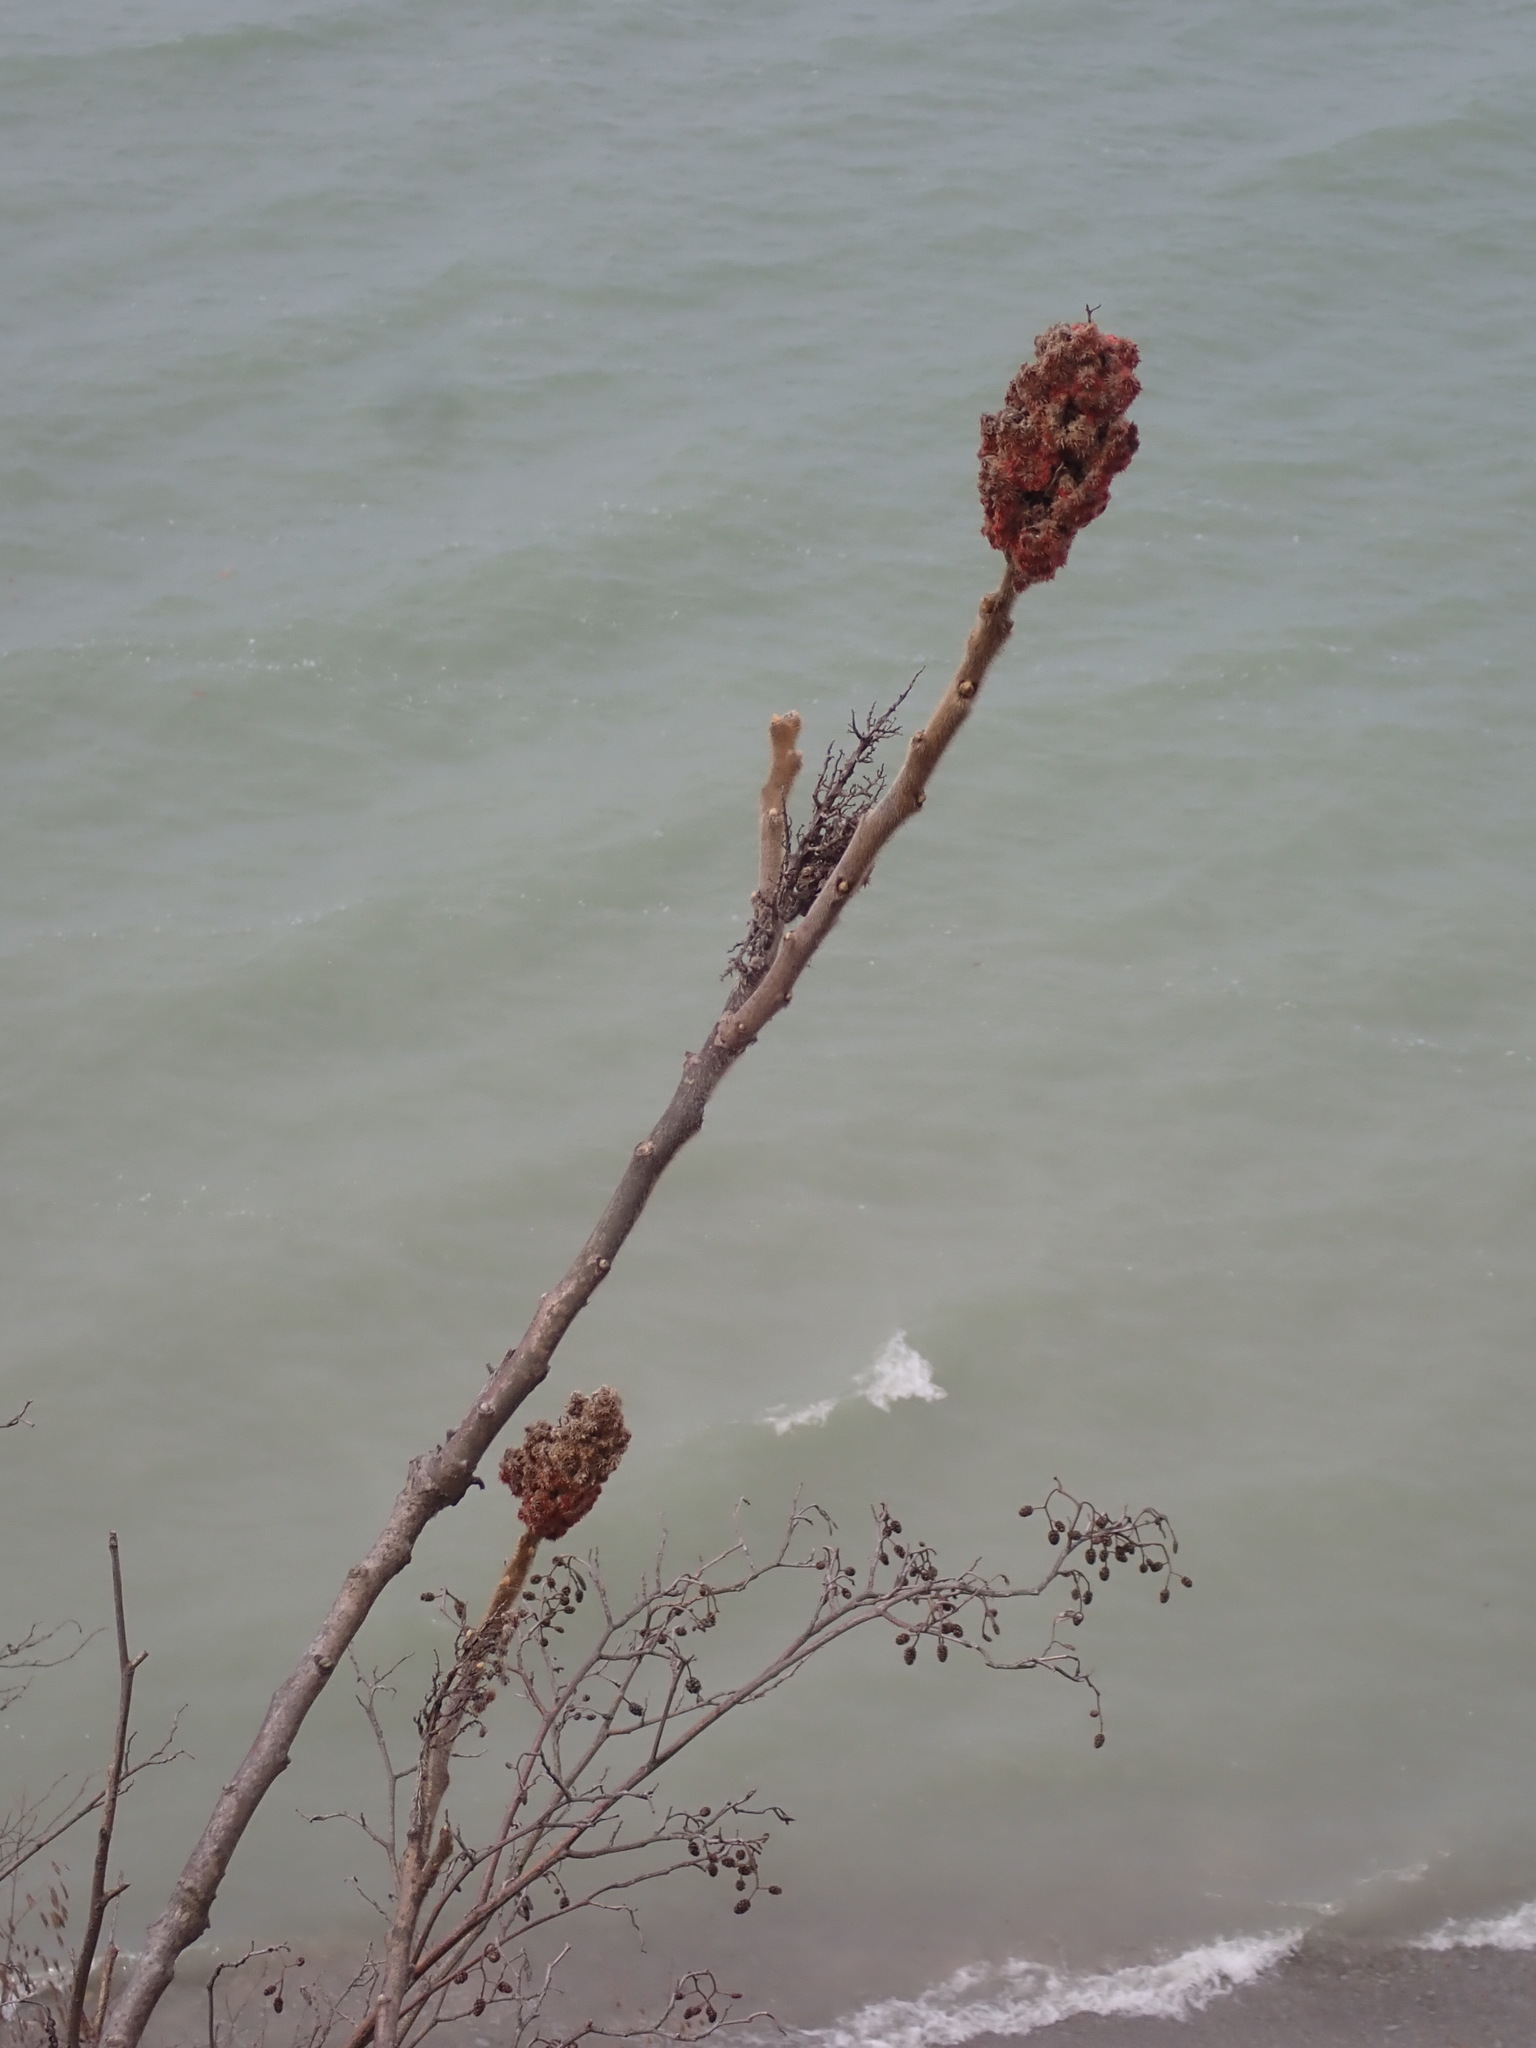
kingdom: Plantae
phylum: Tracheophyta
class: Magnoliopsida
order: Sapindales
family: Anacardiaceae
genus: Rhus
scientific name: Rhus typhina
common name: Staghorn sumac
